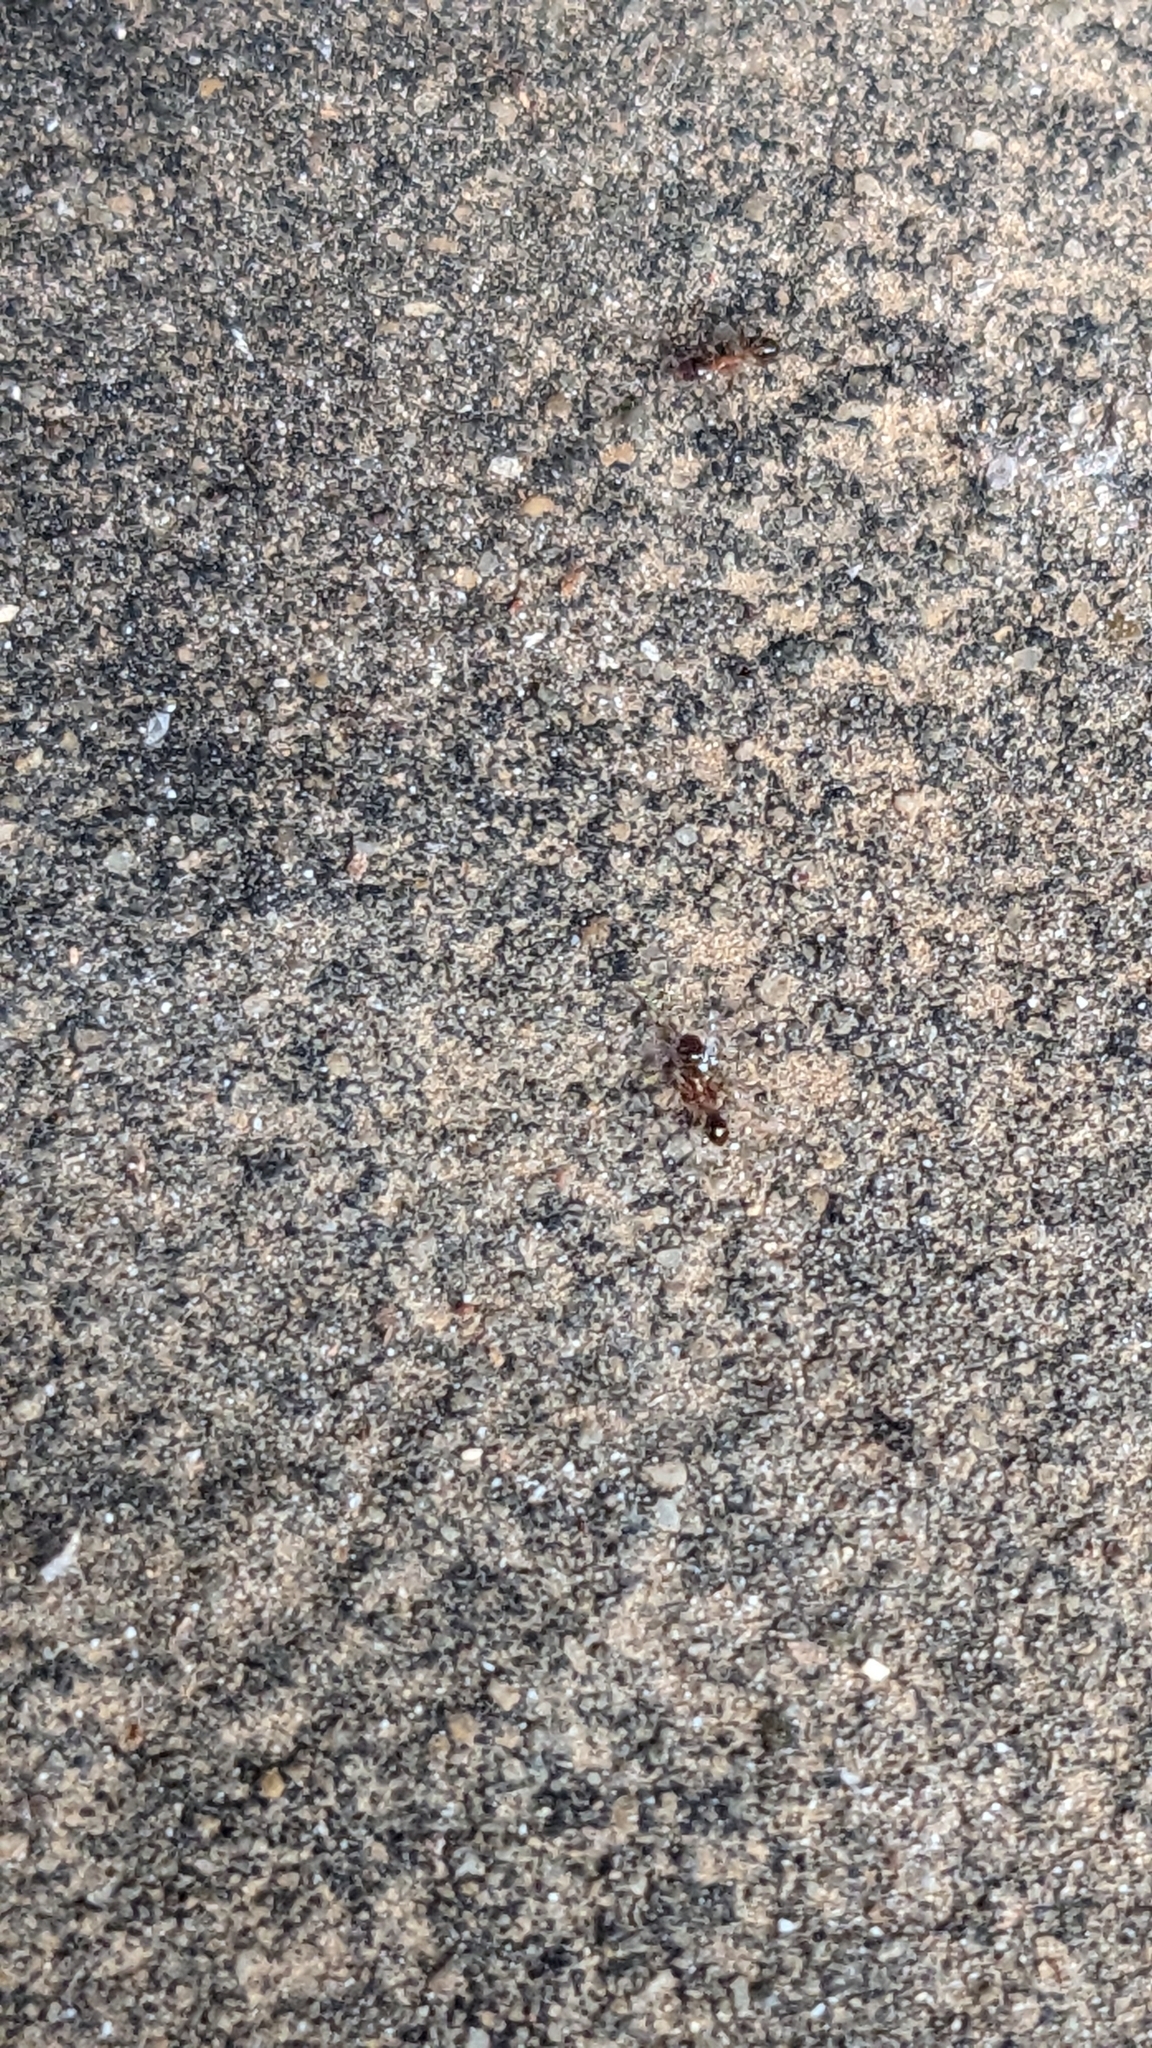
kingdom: Animalia
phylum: Arthropoda
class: Insecta
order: Hymenoptera
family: Formicidae
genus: Pheidole
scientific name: Pheidole indica
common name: Big-headed ant
